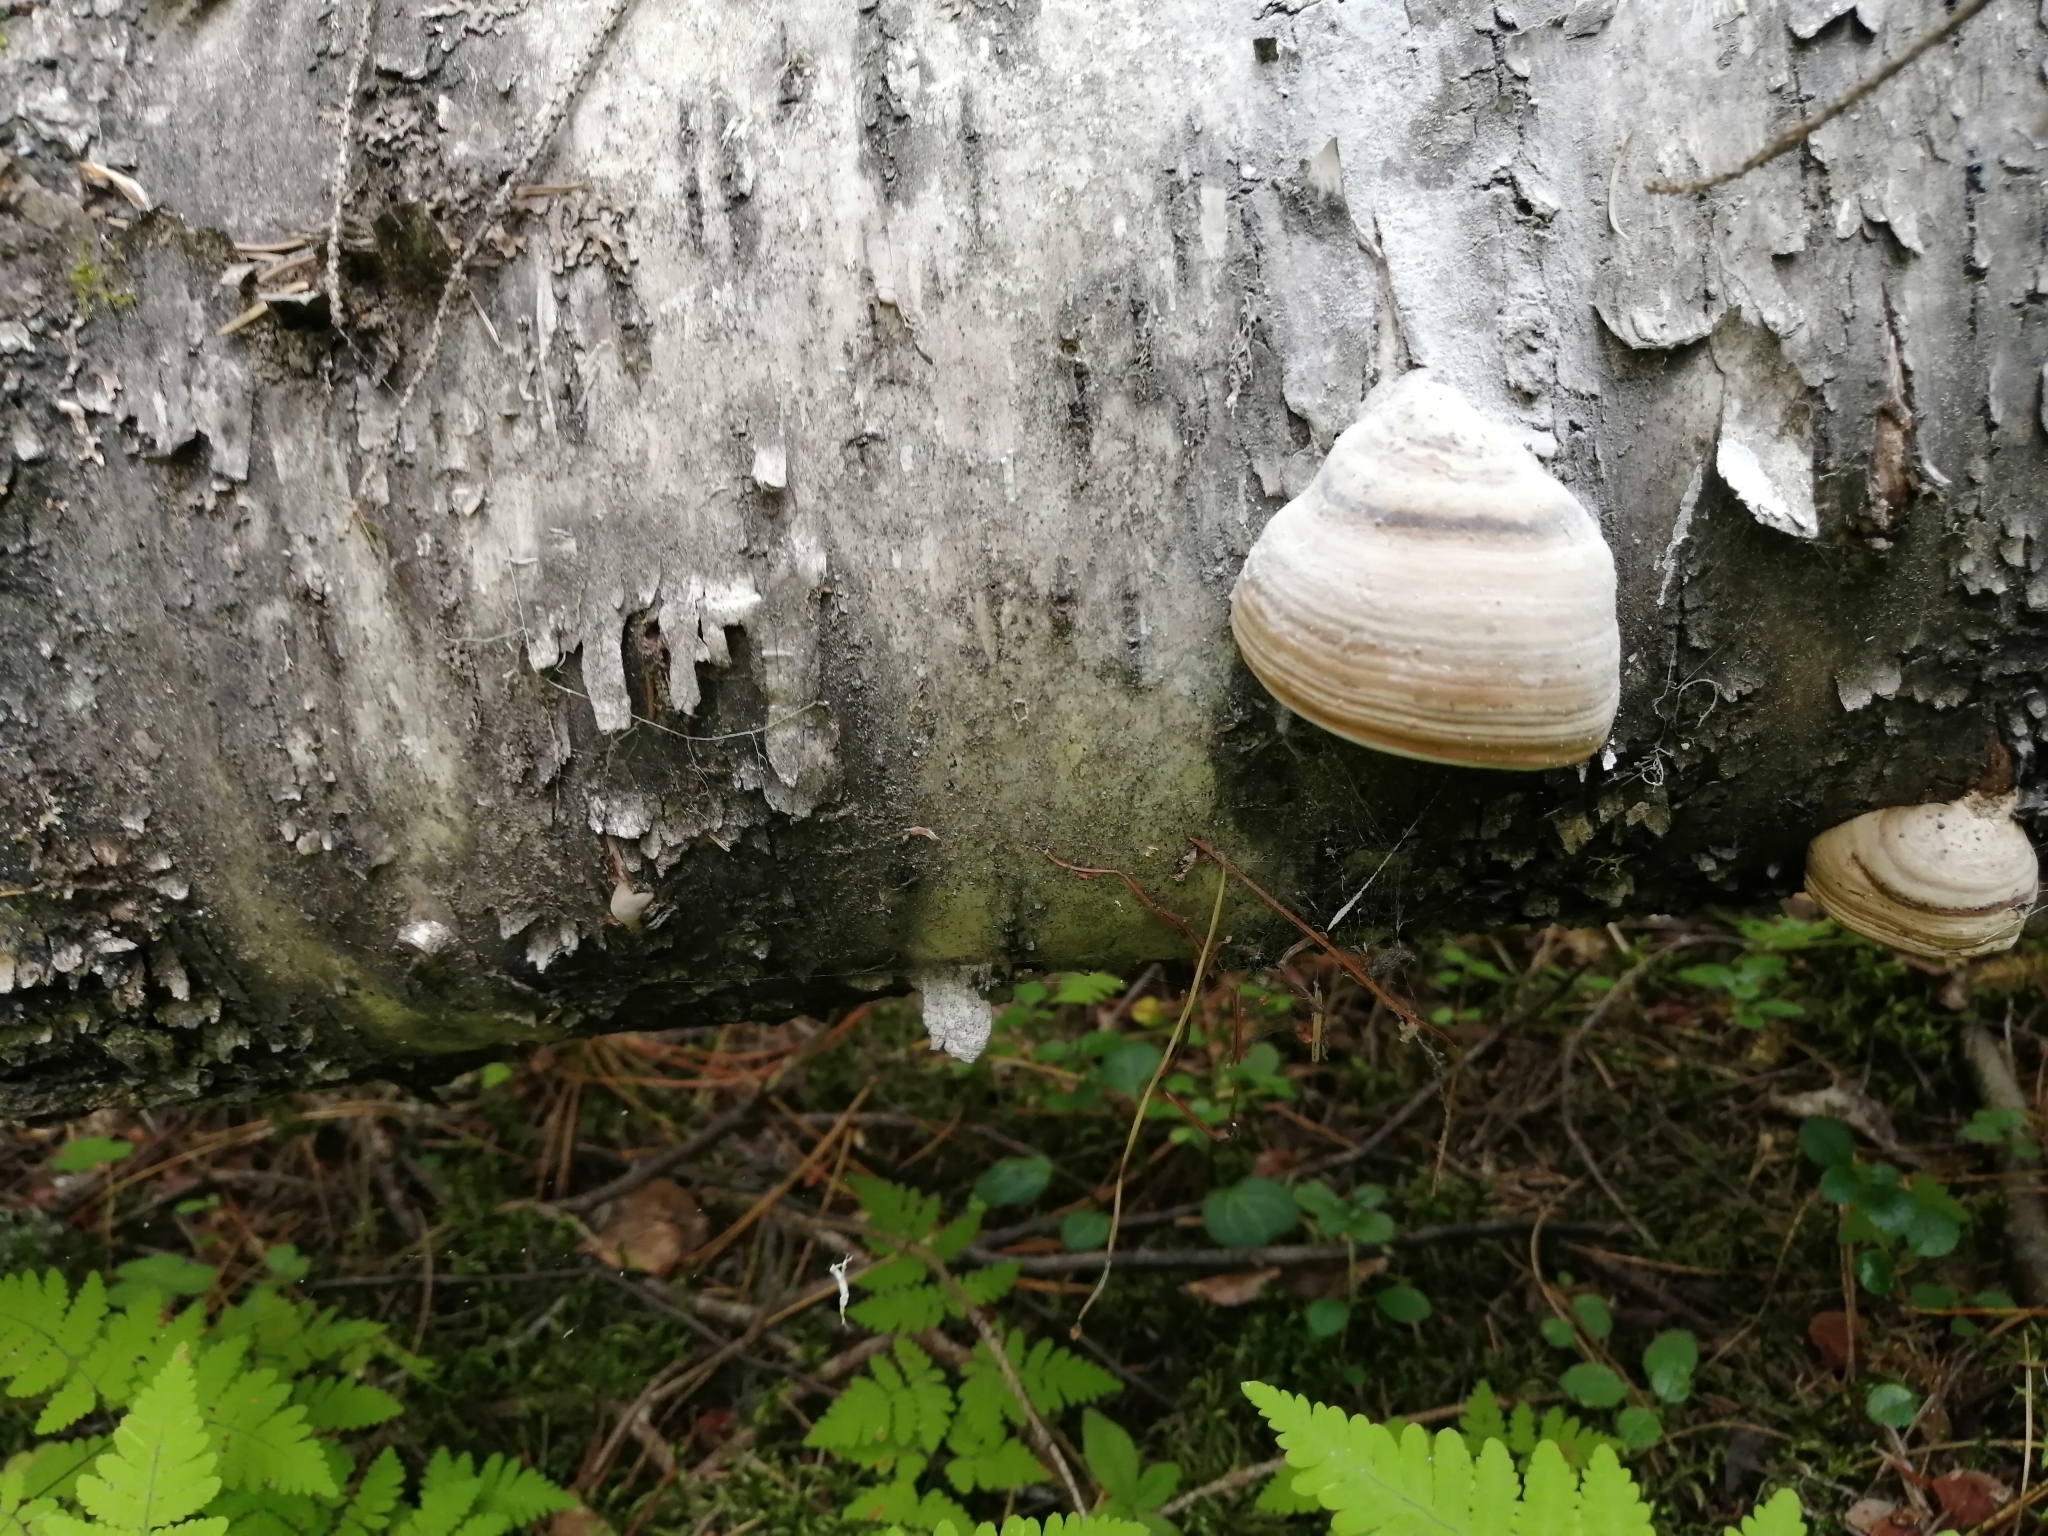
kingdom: Fungi
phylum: Basidiomycota
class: Agaricomycetes
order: Polyporales
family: Polyporaceae
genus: Fomes
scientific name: Fomes fomentarius
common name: Hoof fungus
